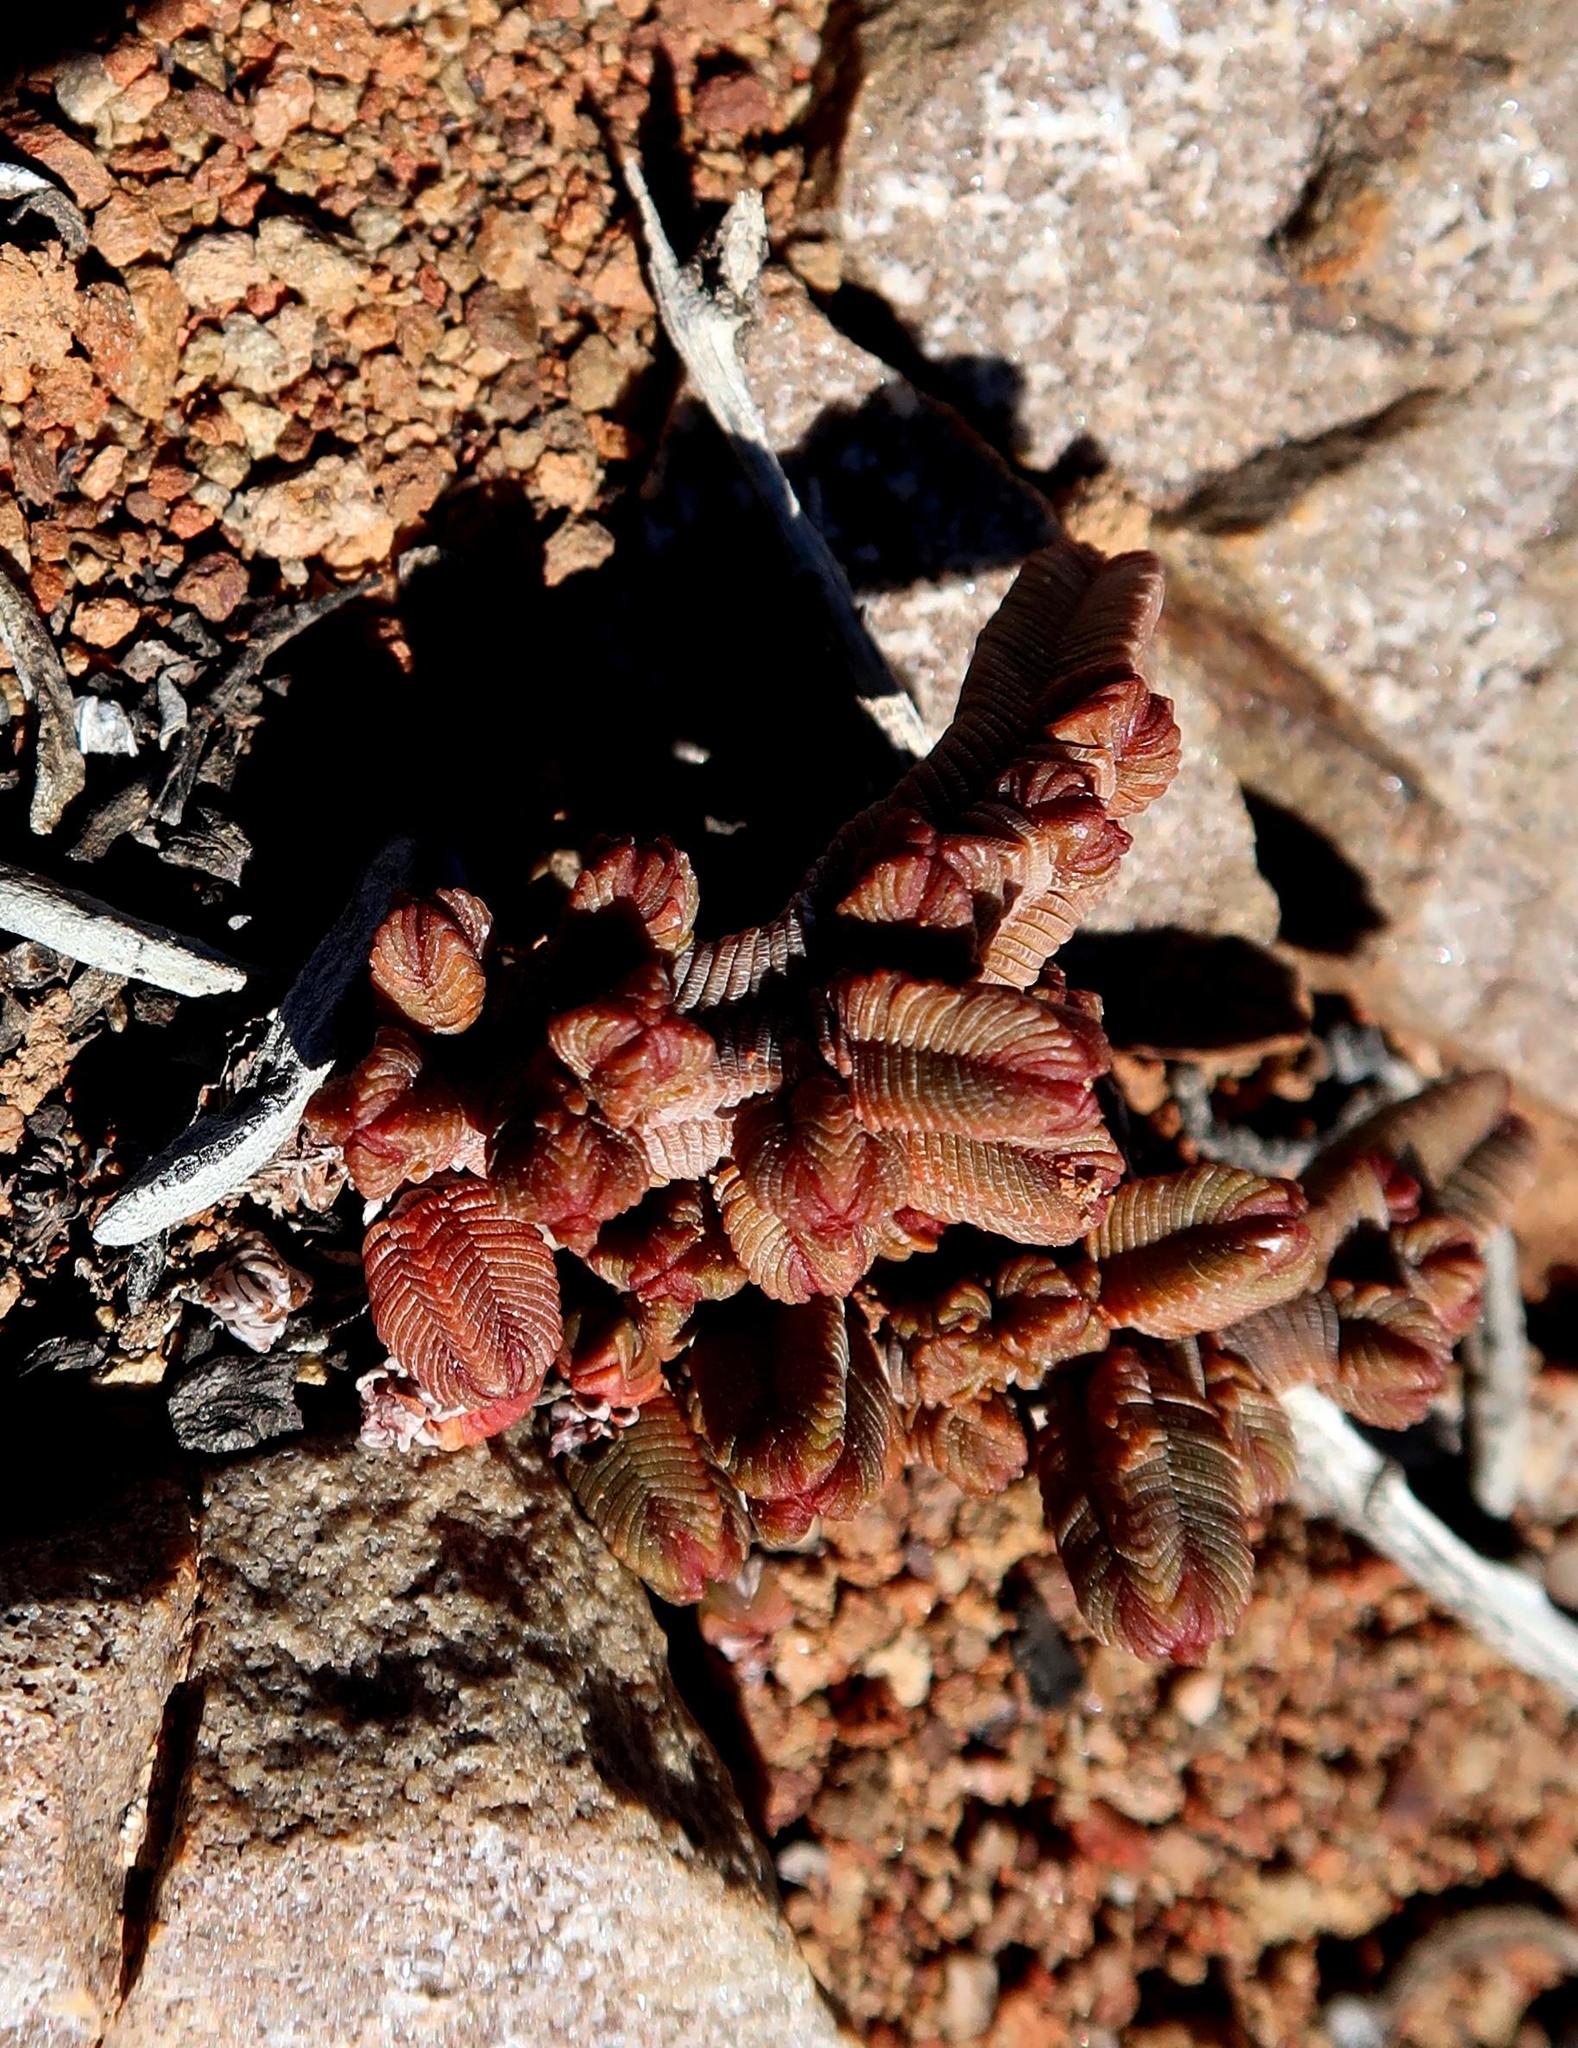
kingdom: Plantae
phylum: Tracheophyta
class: Magnoliopsida
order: Saxifragales
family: Crassulaceae
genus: Crassula
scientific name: Crassula pyramidalis
